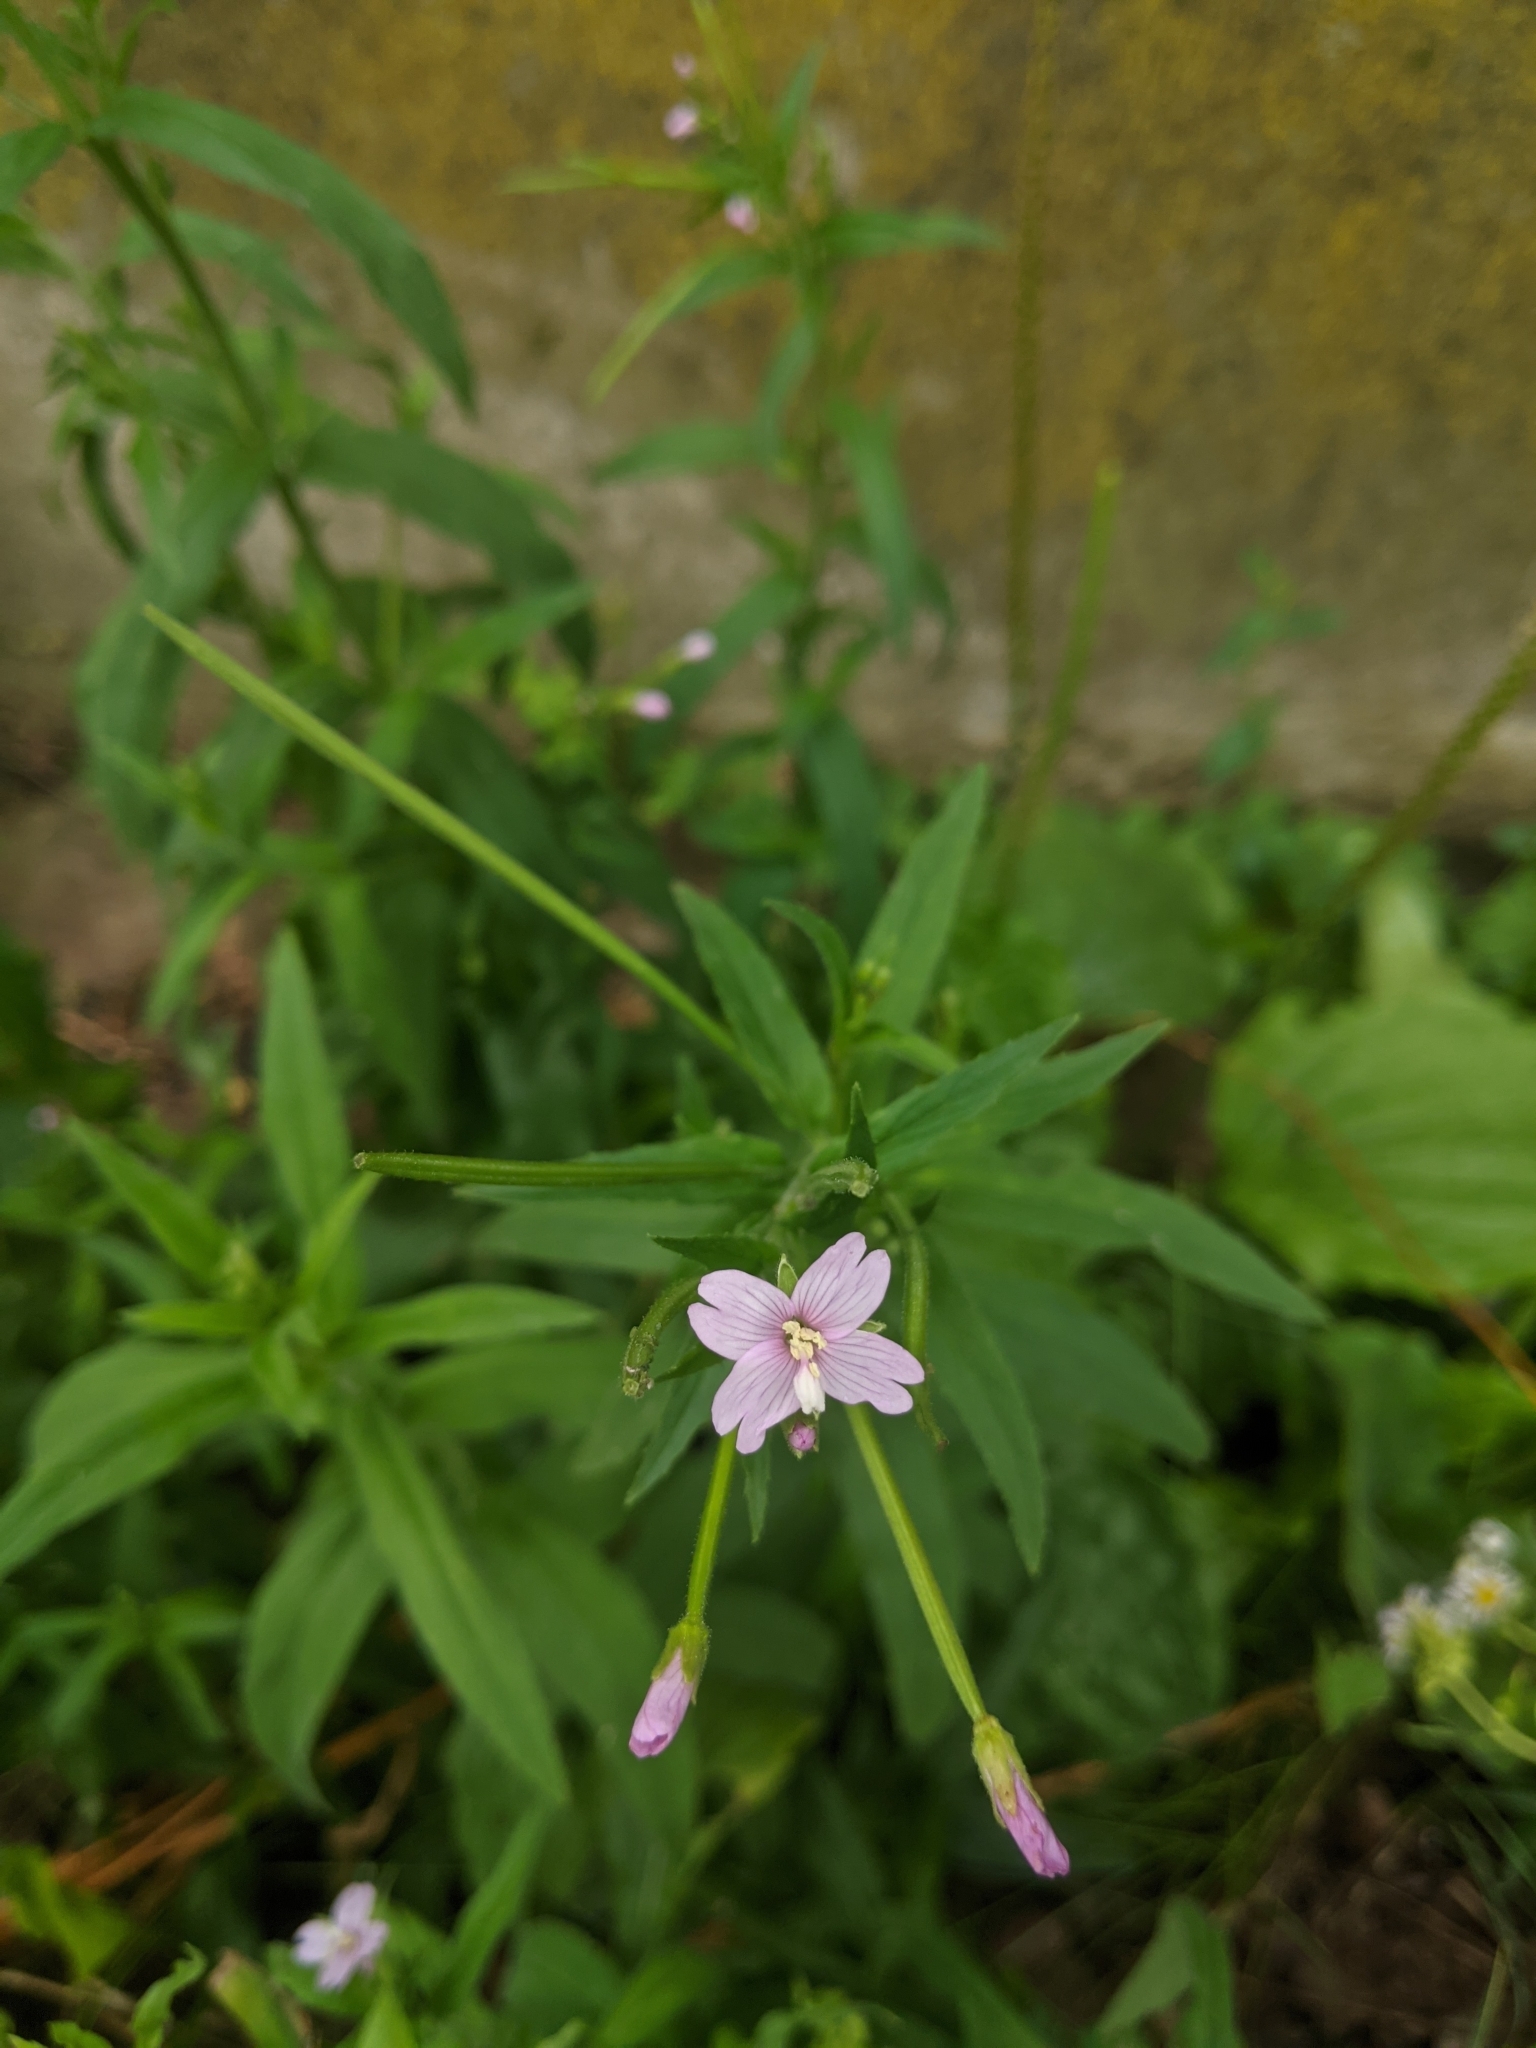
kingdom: Plantae
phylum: Tracheophyta
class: Magnoliopsida
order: Myrtales
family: Onagraceae
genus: Epilobium
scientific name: Epilobium tetragonum
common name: Square-stemmed willowherb
